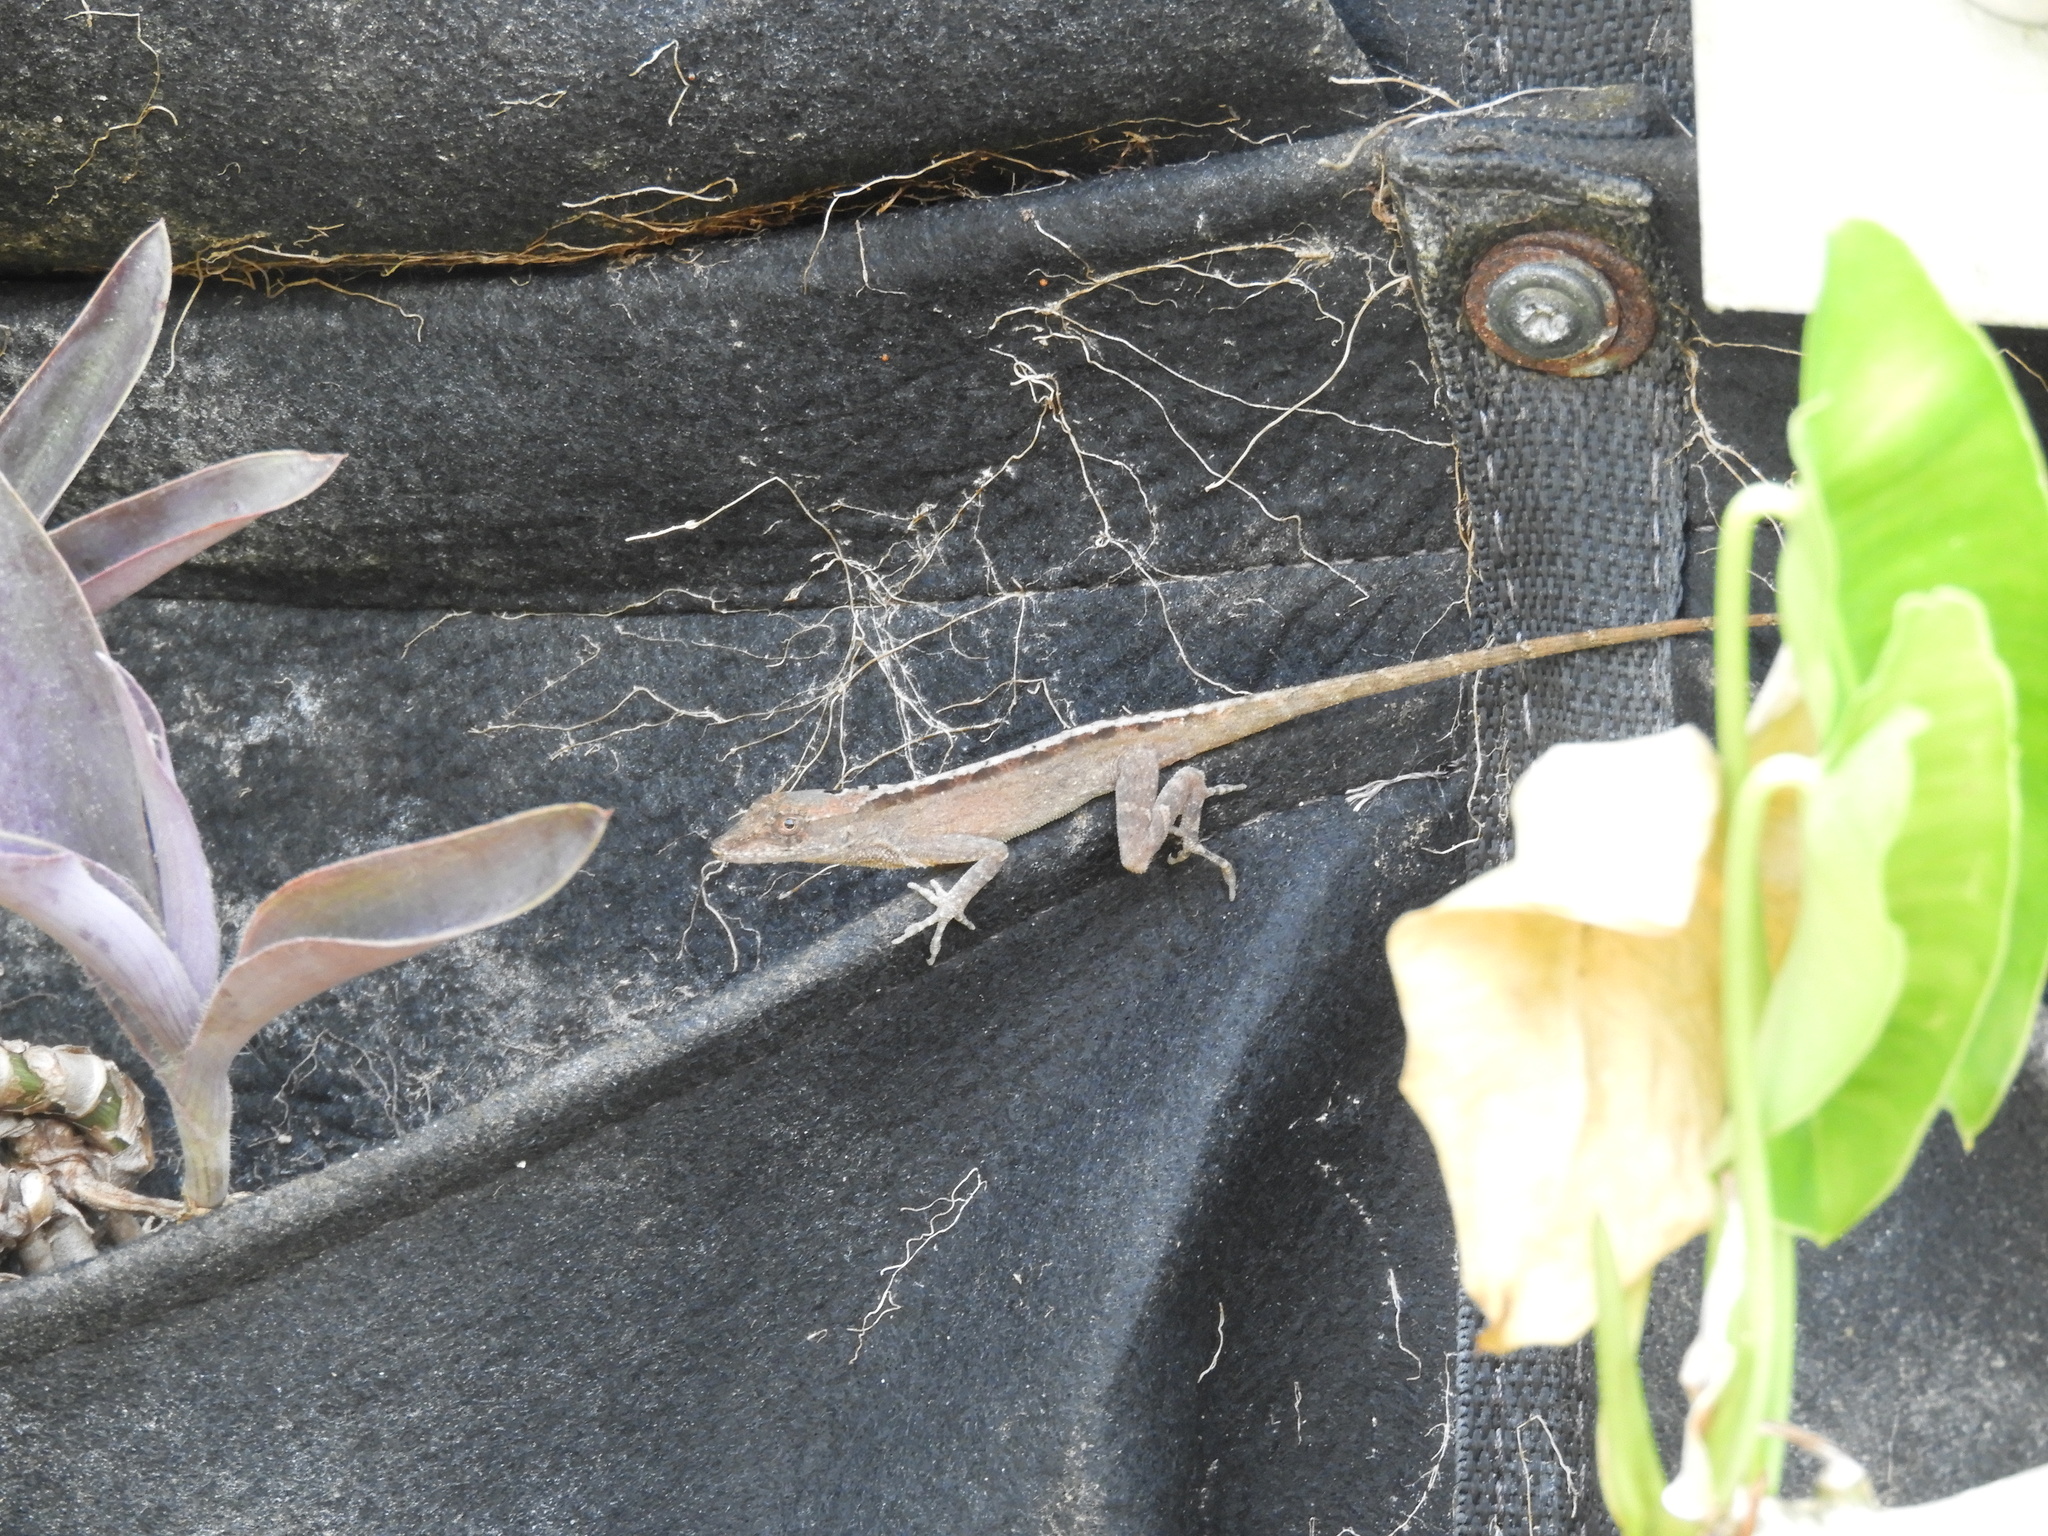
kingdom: Animalia
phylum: Chordata
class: Squamata
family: Dactyloidae
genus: Anolis
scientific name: Anolis sagrei
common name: Brown anole
